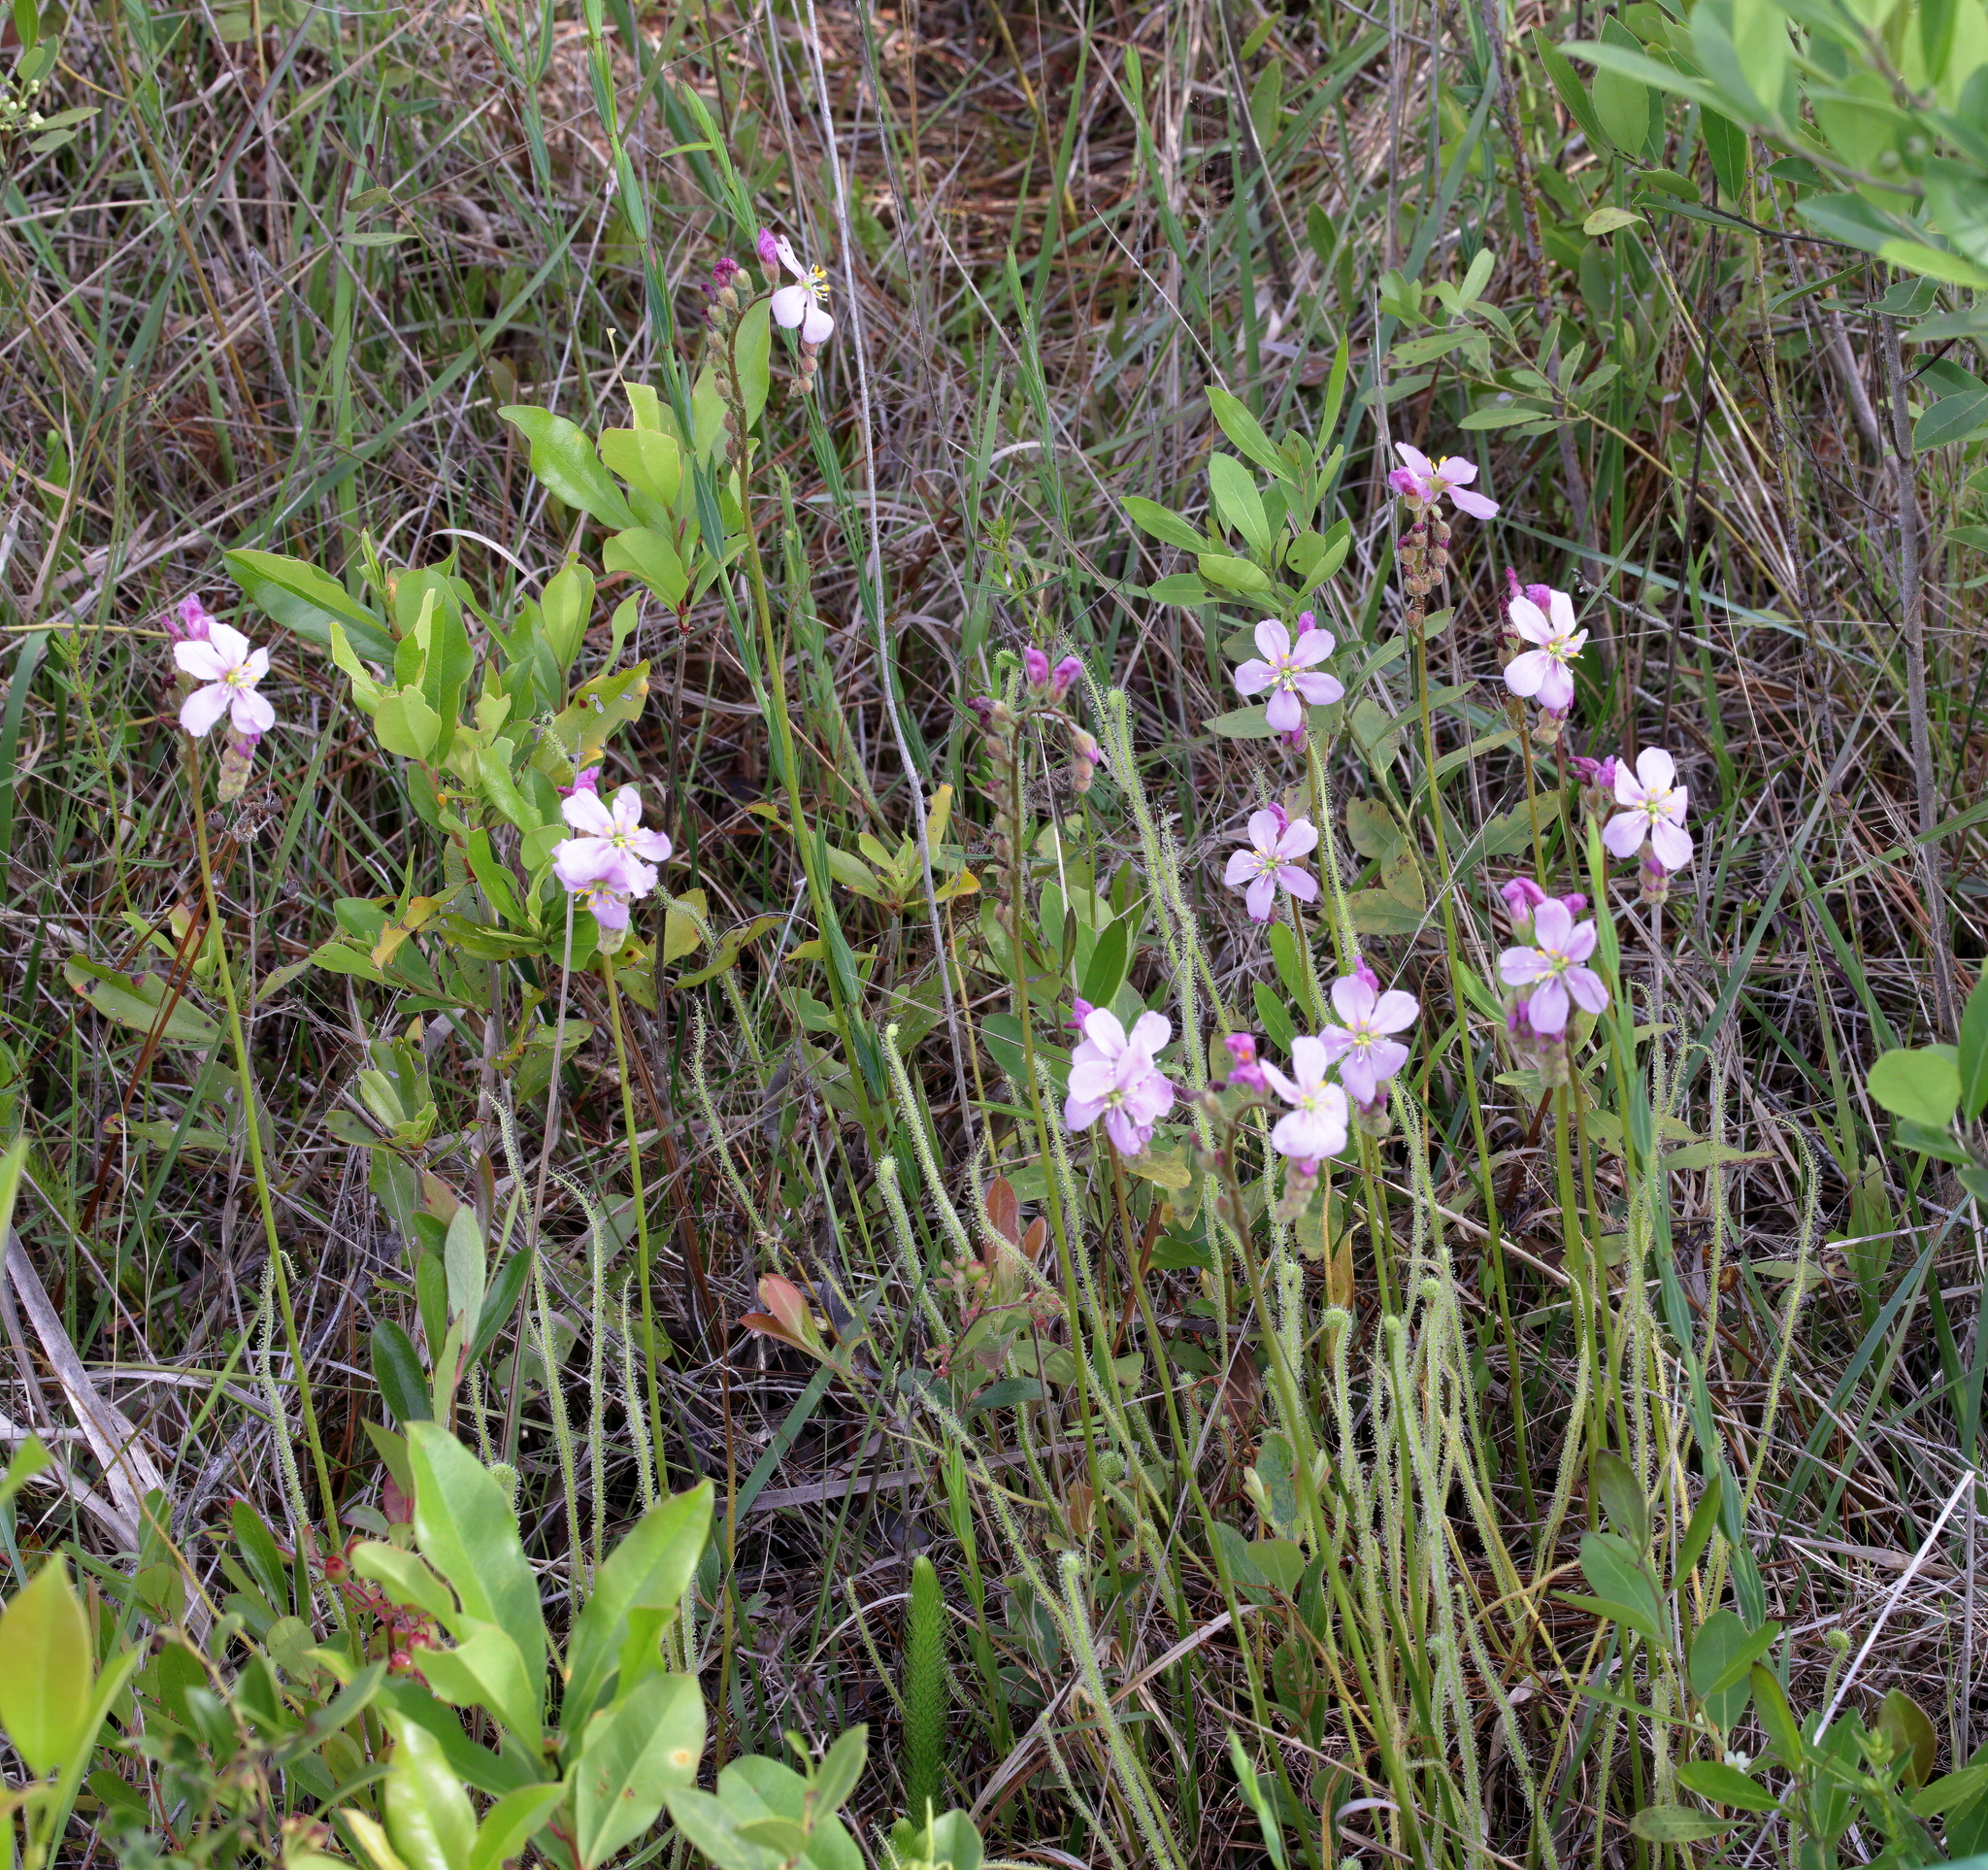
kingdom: Plantae
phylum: Tracheophyta
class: Magnoliopsida
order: Caryophyllales
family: Droseraceae
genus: Drosera
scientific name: Drosera filiformis
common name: Dew-thread
